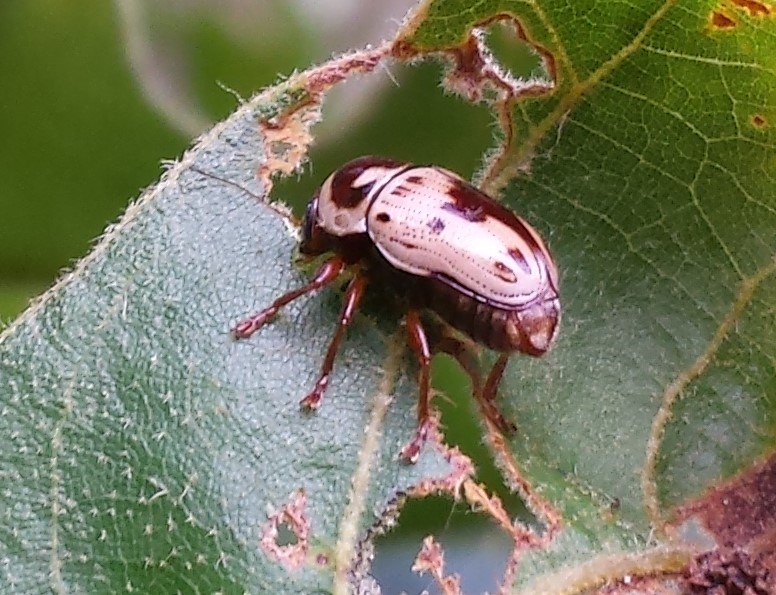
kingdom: Animalia
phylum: Arthropoda
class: Insecta
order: Coleoptera
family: Chrysomelidae
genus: Cryptocephalus
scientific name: Cryptocephalus mutabilis
